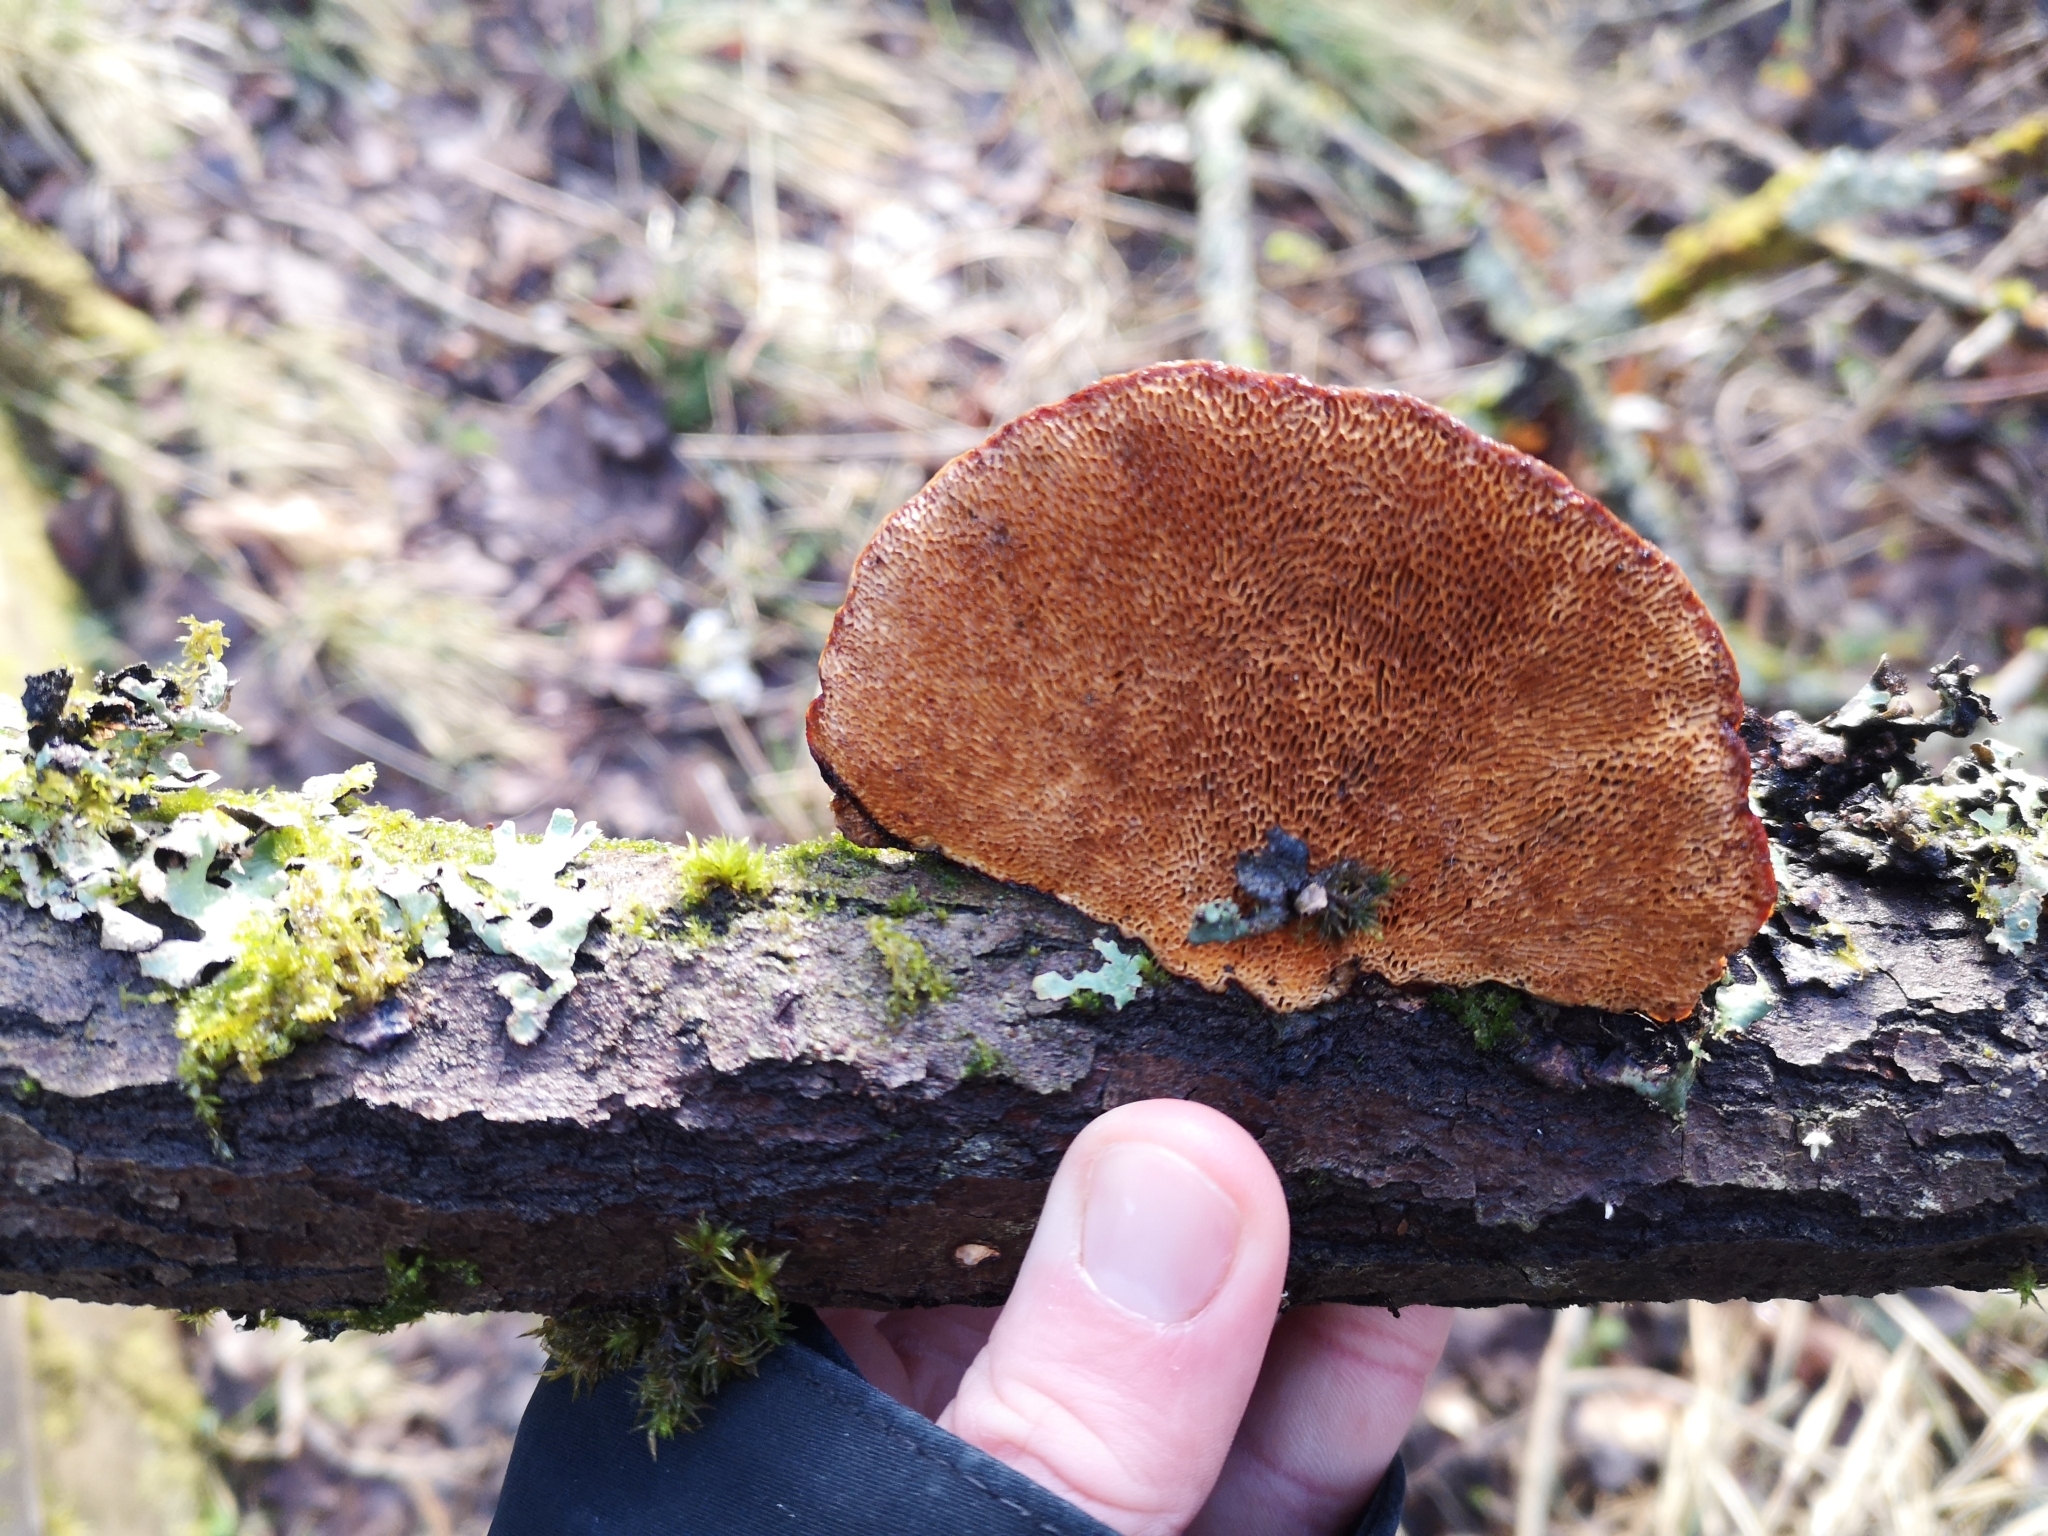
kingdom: Fungi
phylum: Basidiomycota
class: Agaricomycetes
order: Polyporales
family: Polyporaceae
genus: Daedaleopsis
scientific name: Daedaleopsis confragosa
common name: Blushing bracket
